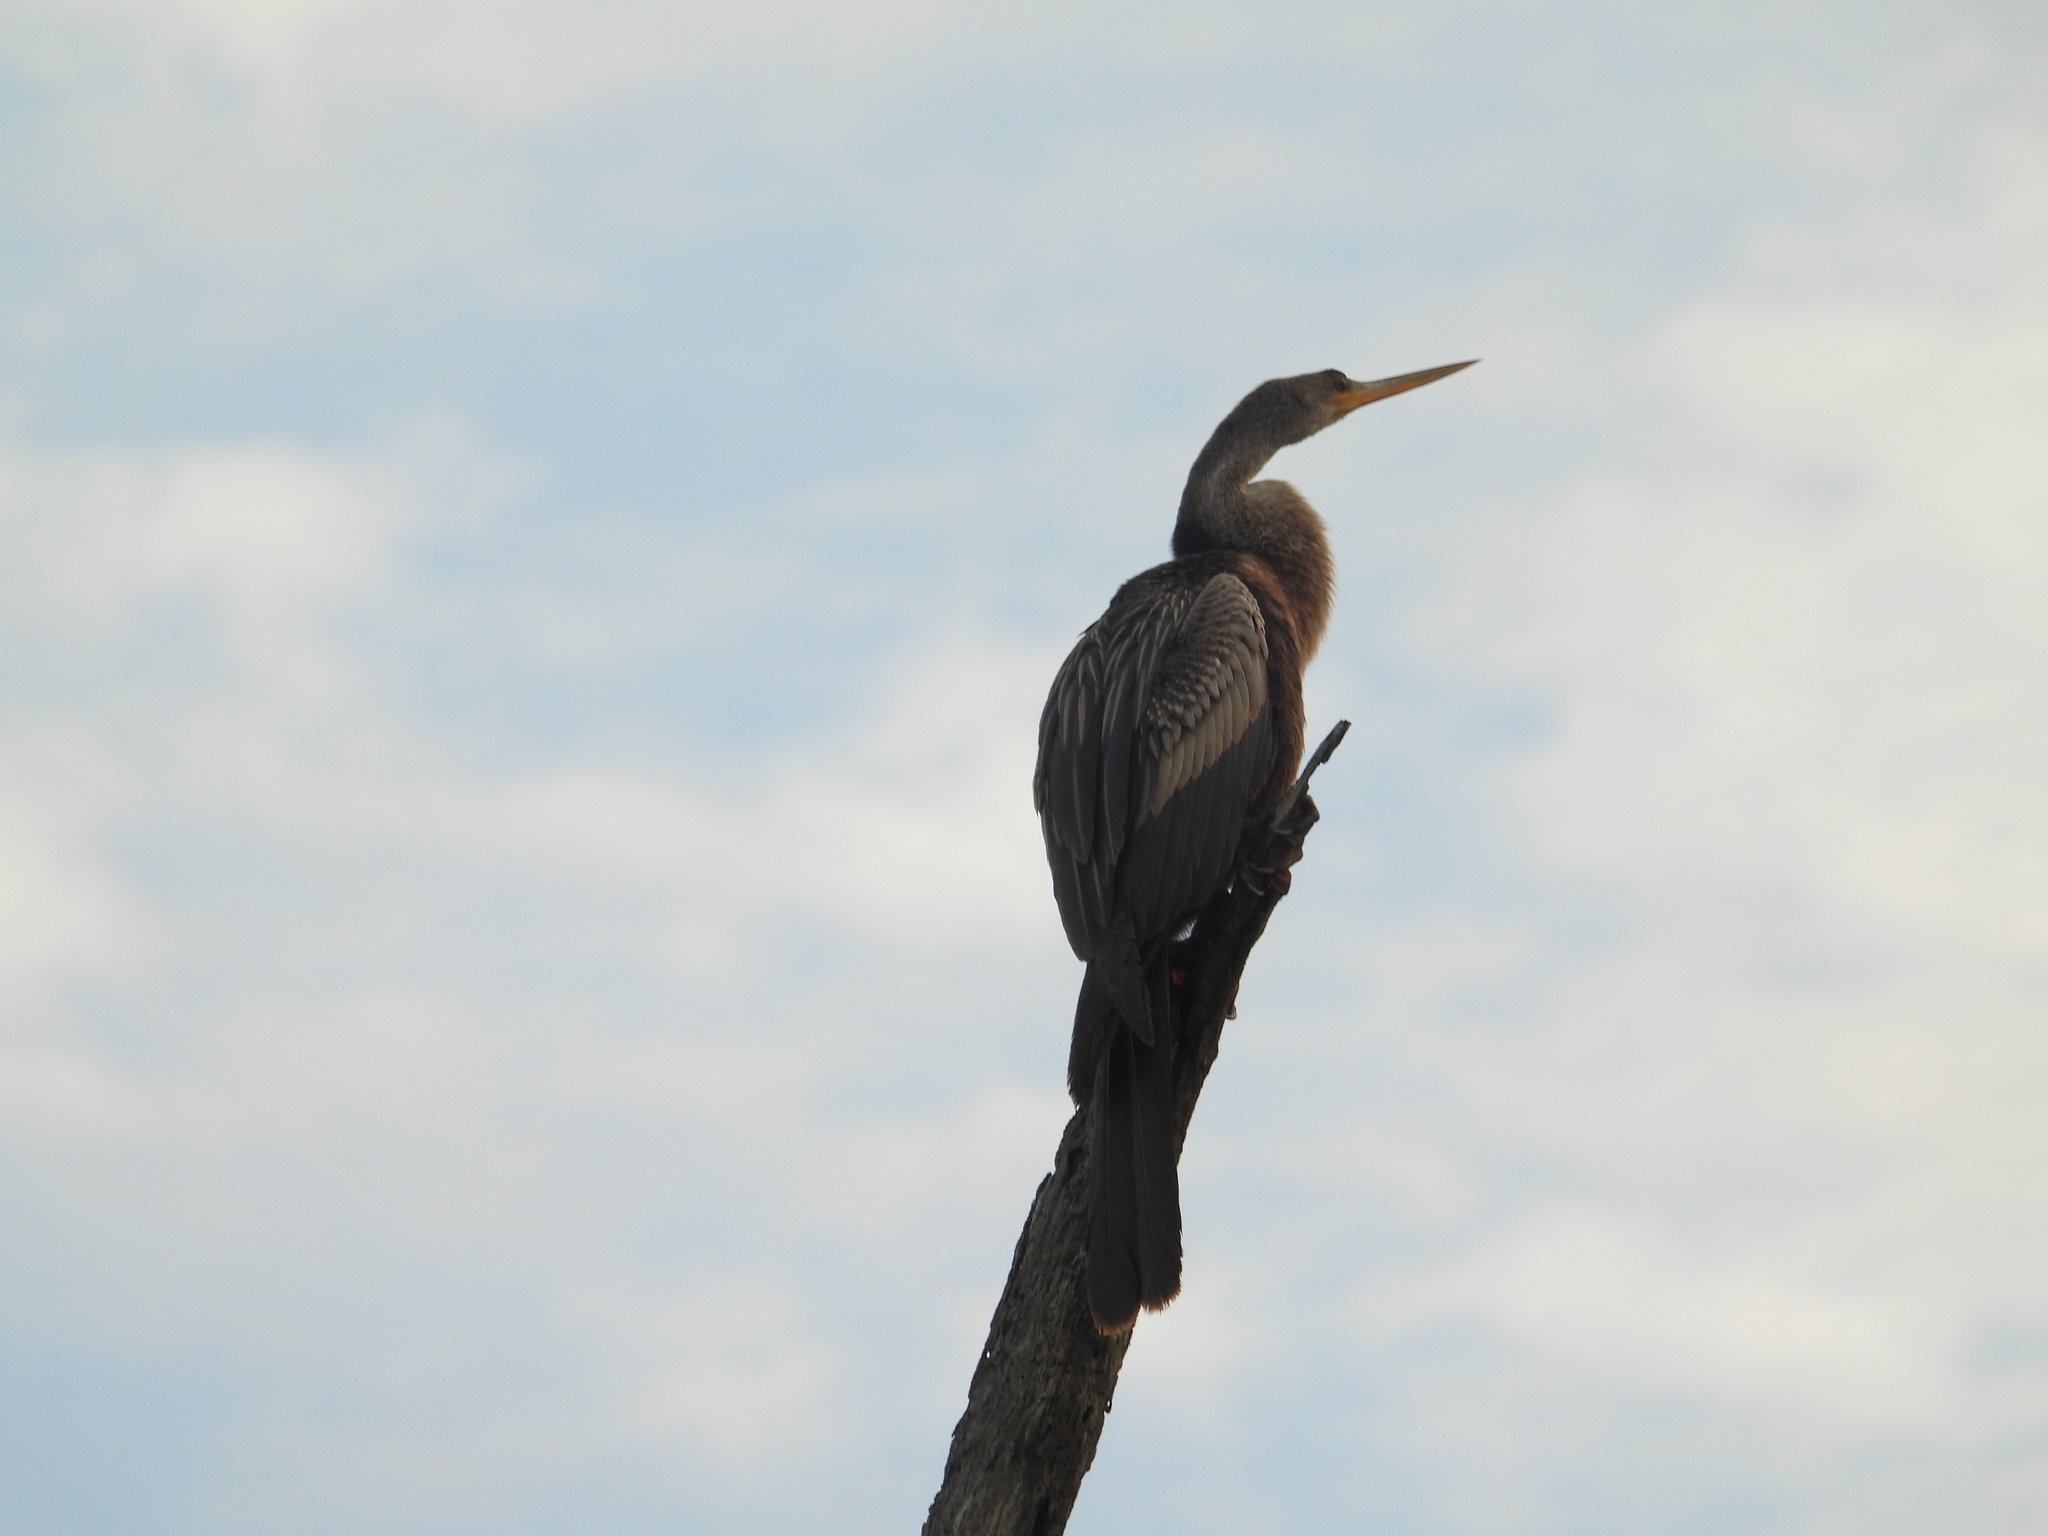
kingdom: Animalia
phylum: Chordata
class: Aves
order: Suliformes
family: Anhingidae
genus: Anhinga
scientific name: Anhinga anhinga
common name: Anhinga
